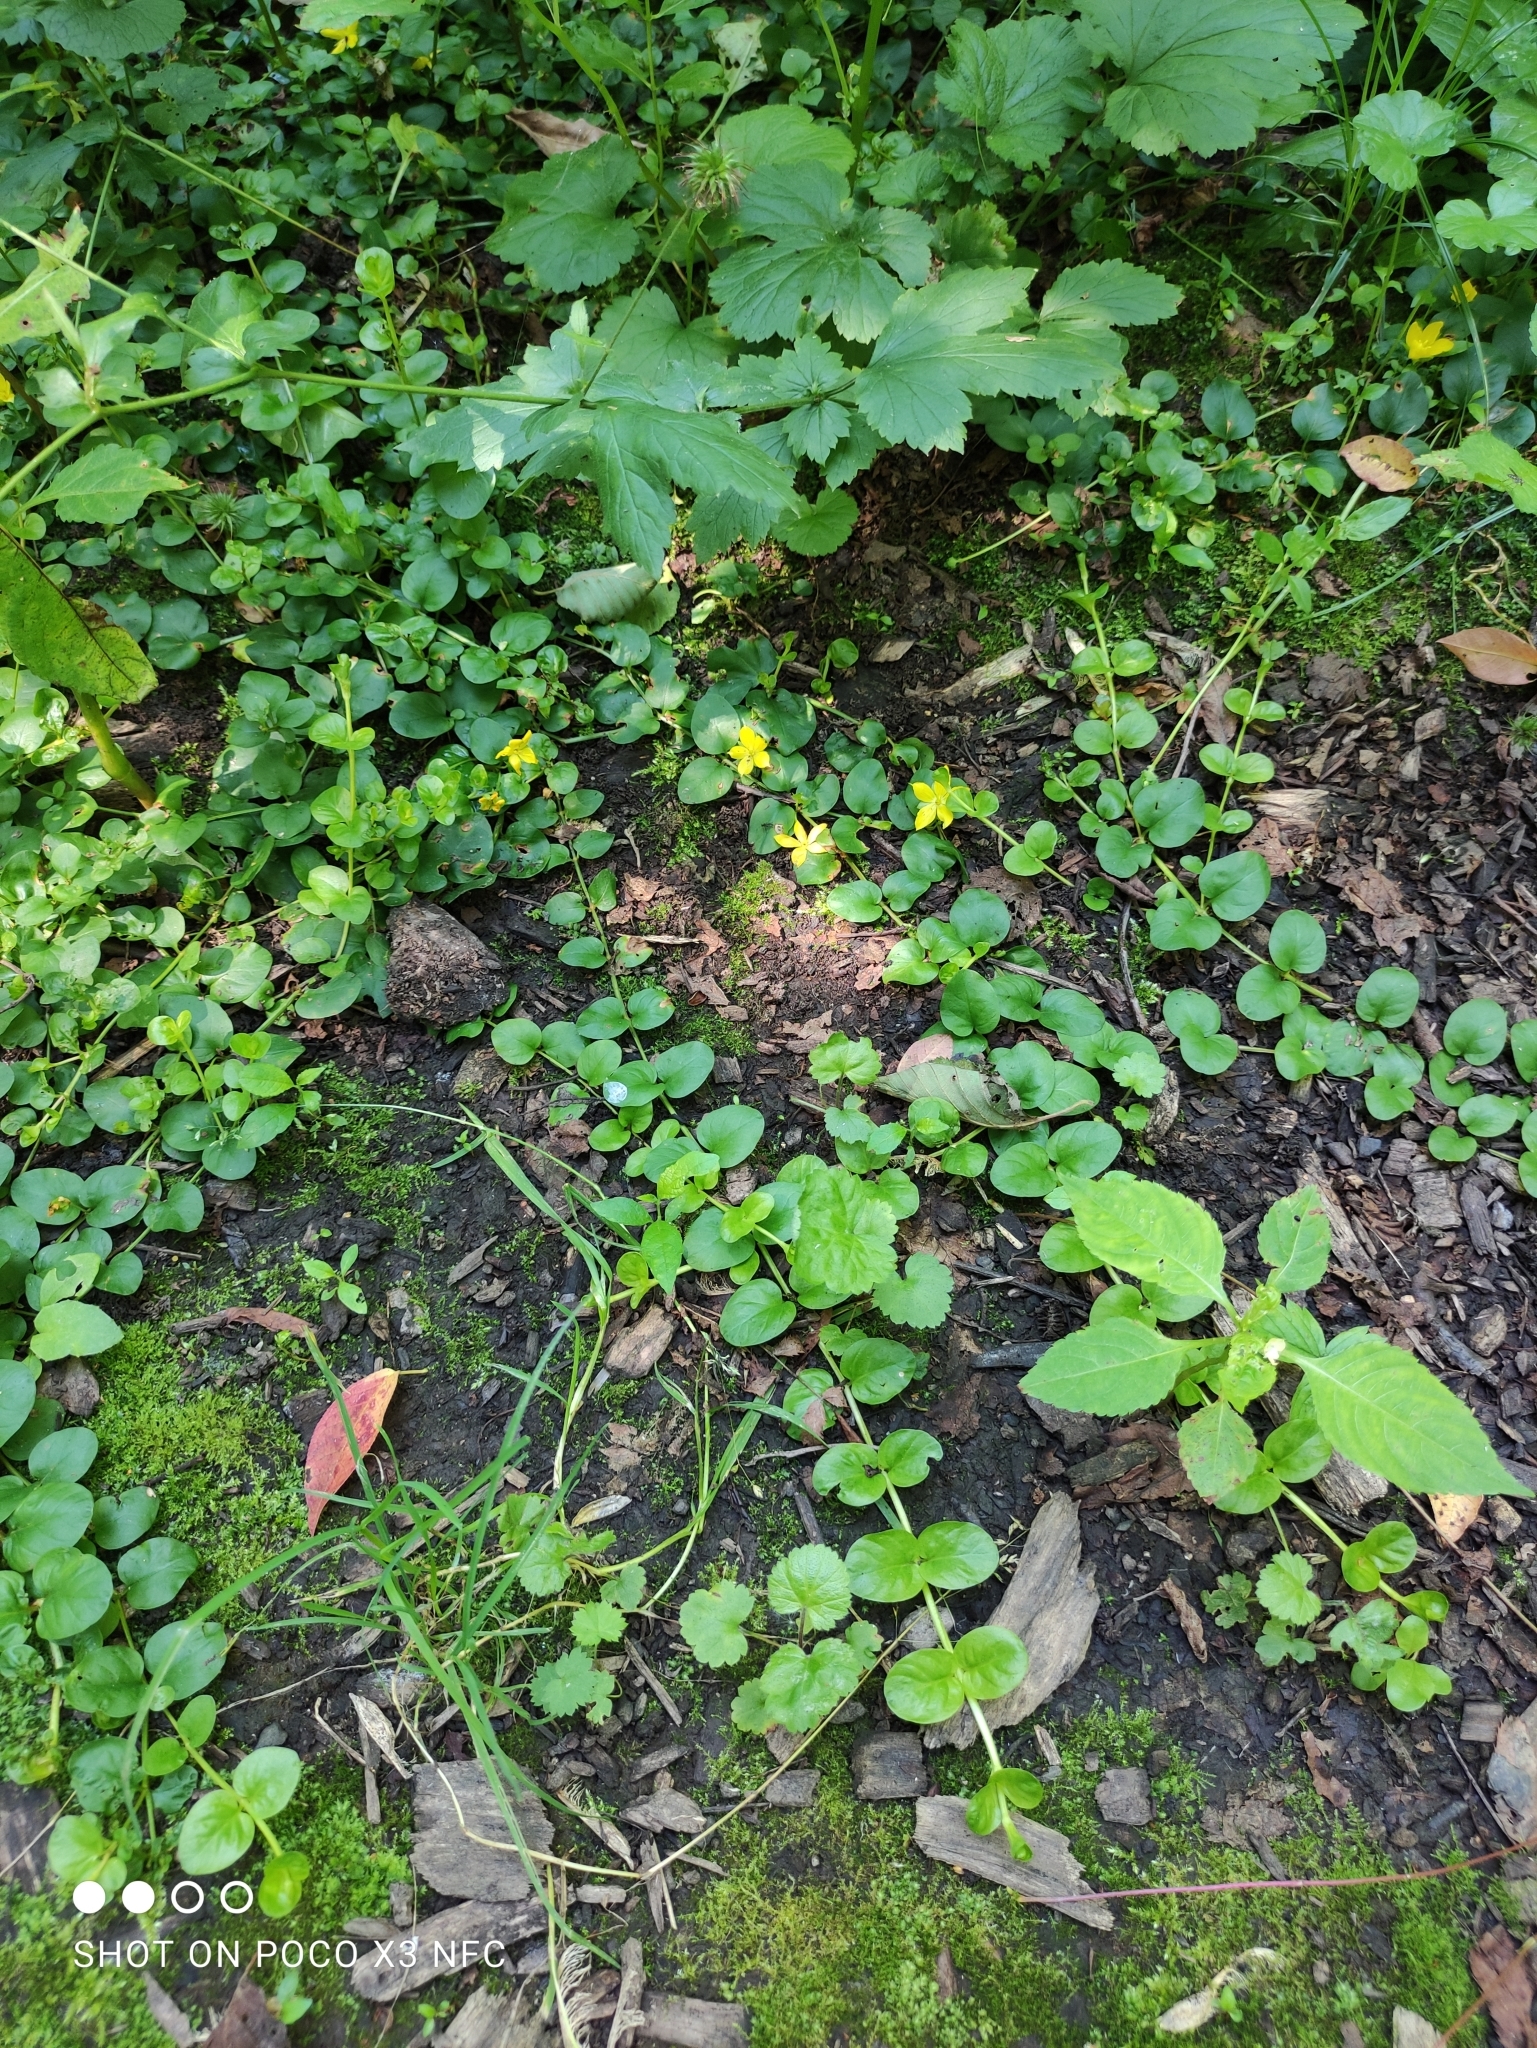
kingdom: Plantae
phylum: Tracheophyta
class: Magnoliopsida
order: Ericales
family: Primulaceae
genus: Lysimachia
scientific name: Lysimachia nummularia
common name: Moneywort
